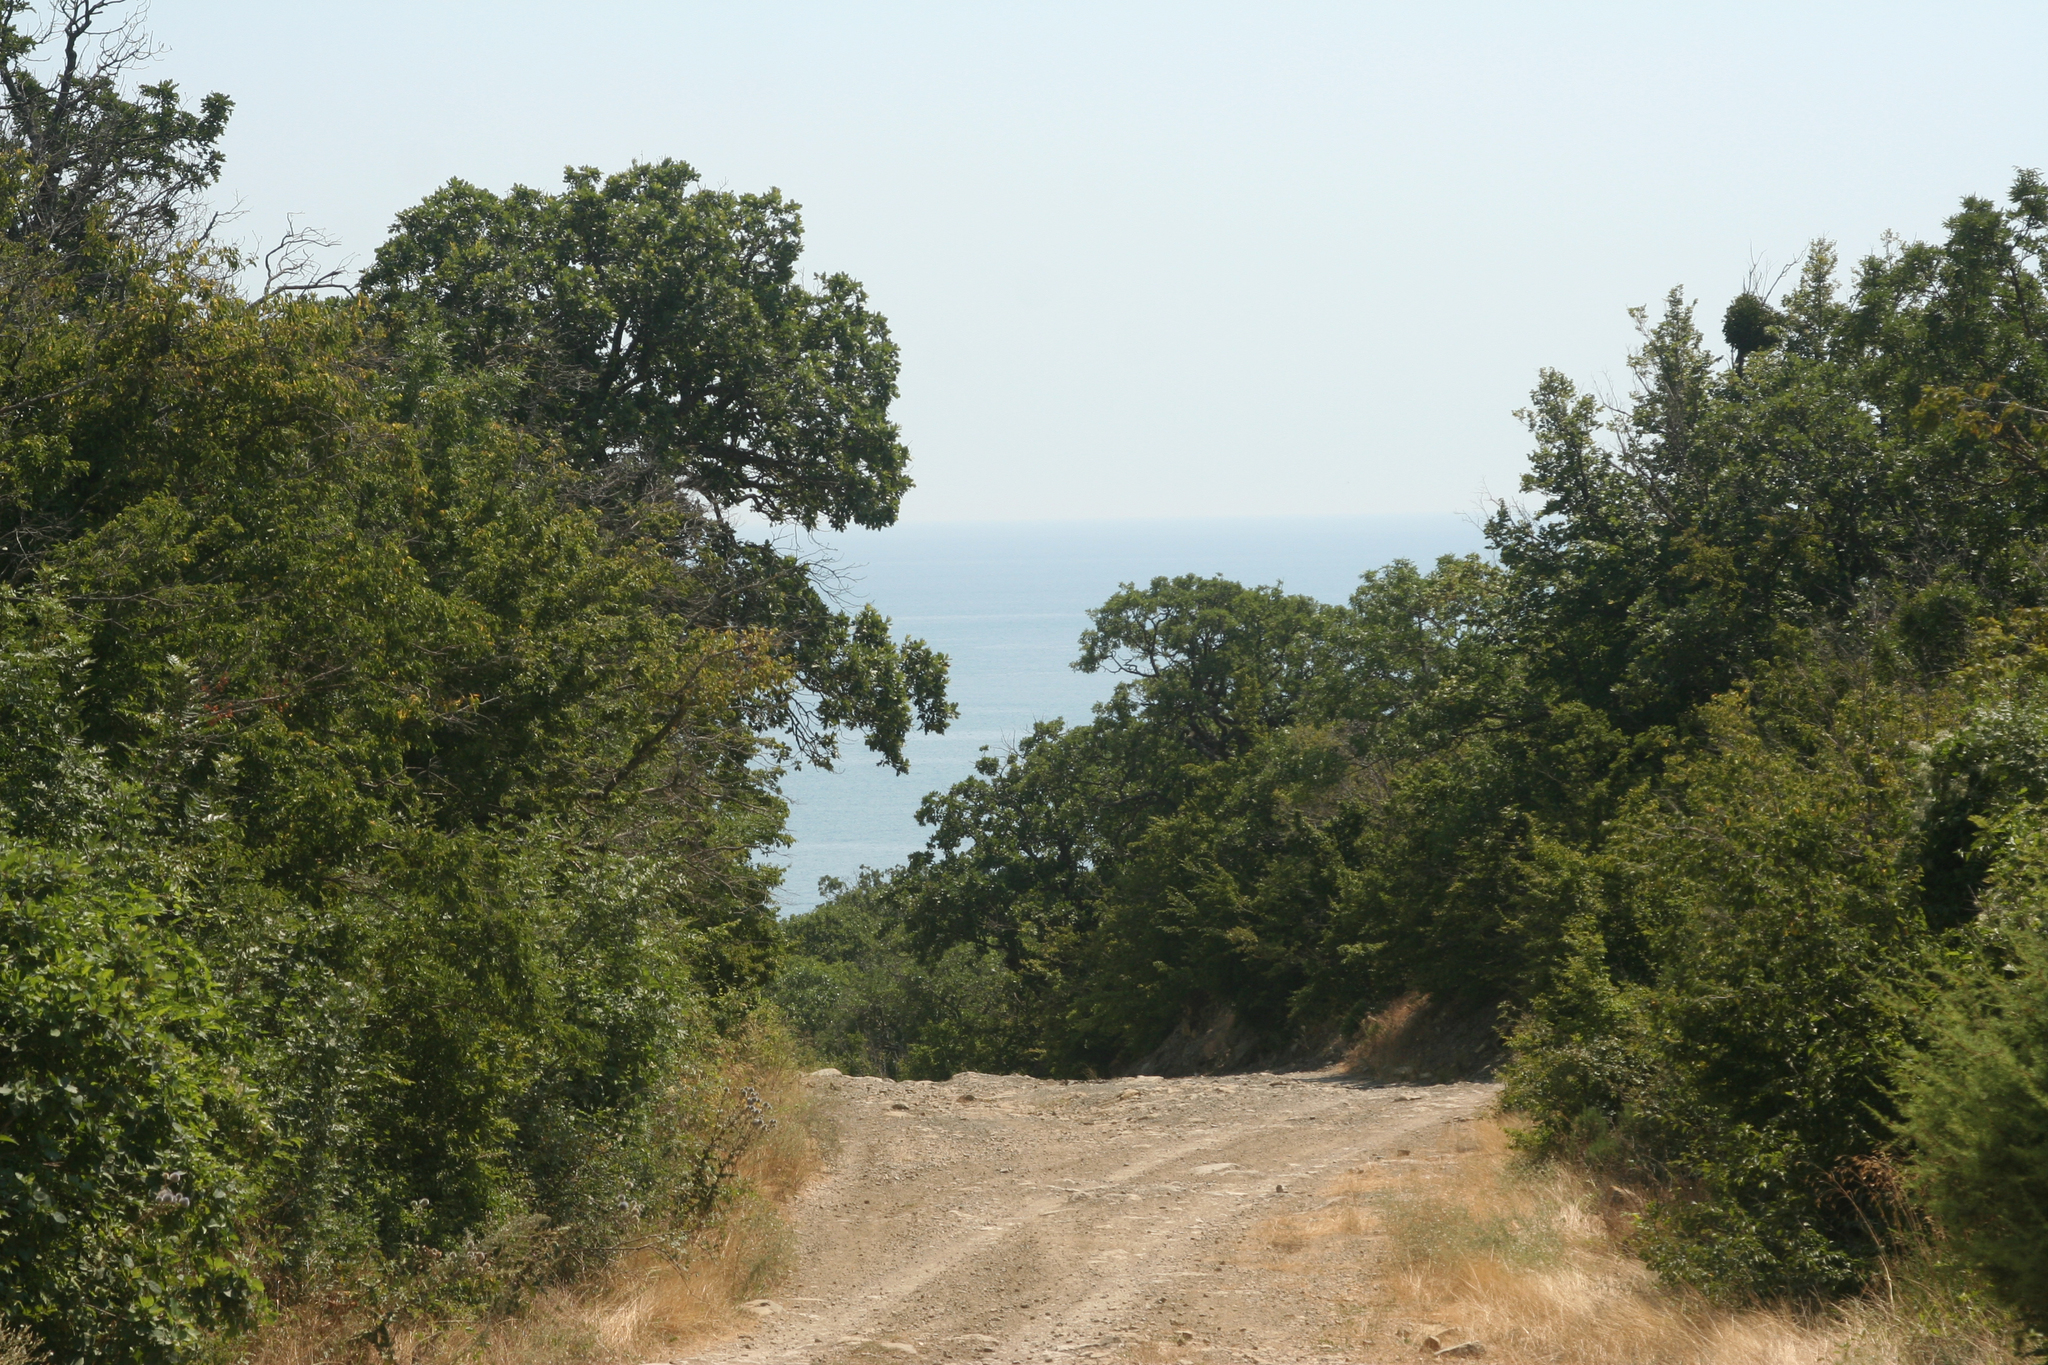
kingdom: Plantae
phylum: Tracheophyta
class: Magnoliopsida
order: Fagales
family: Fagaceae
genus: Quercus
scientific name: Quercus pubescens
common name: Downy oak
